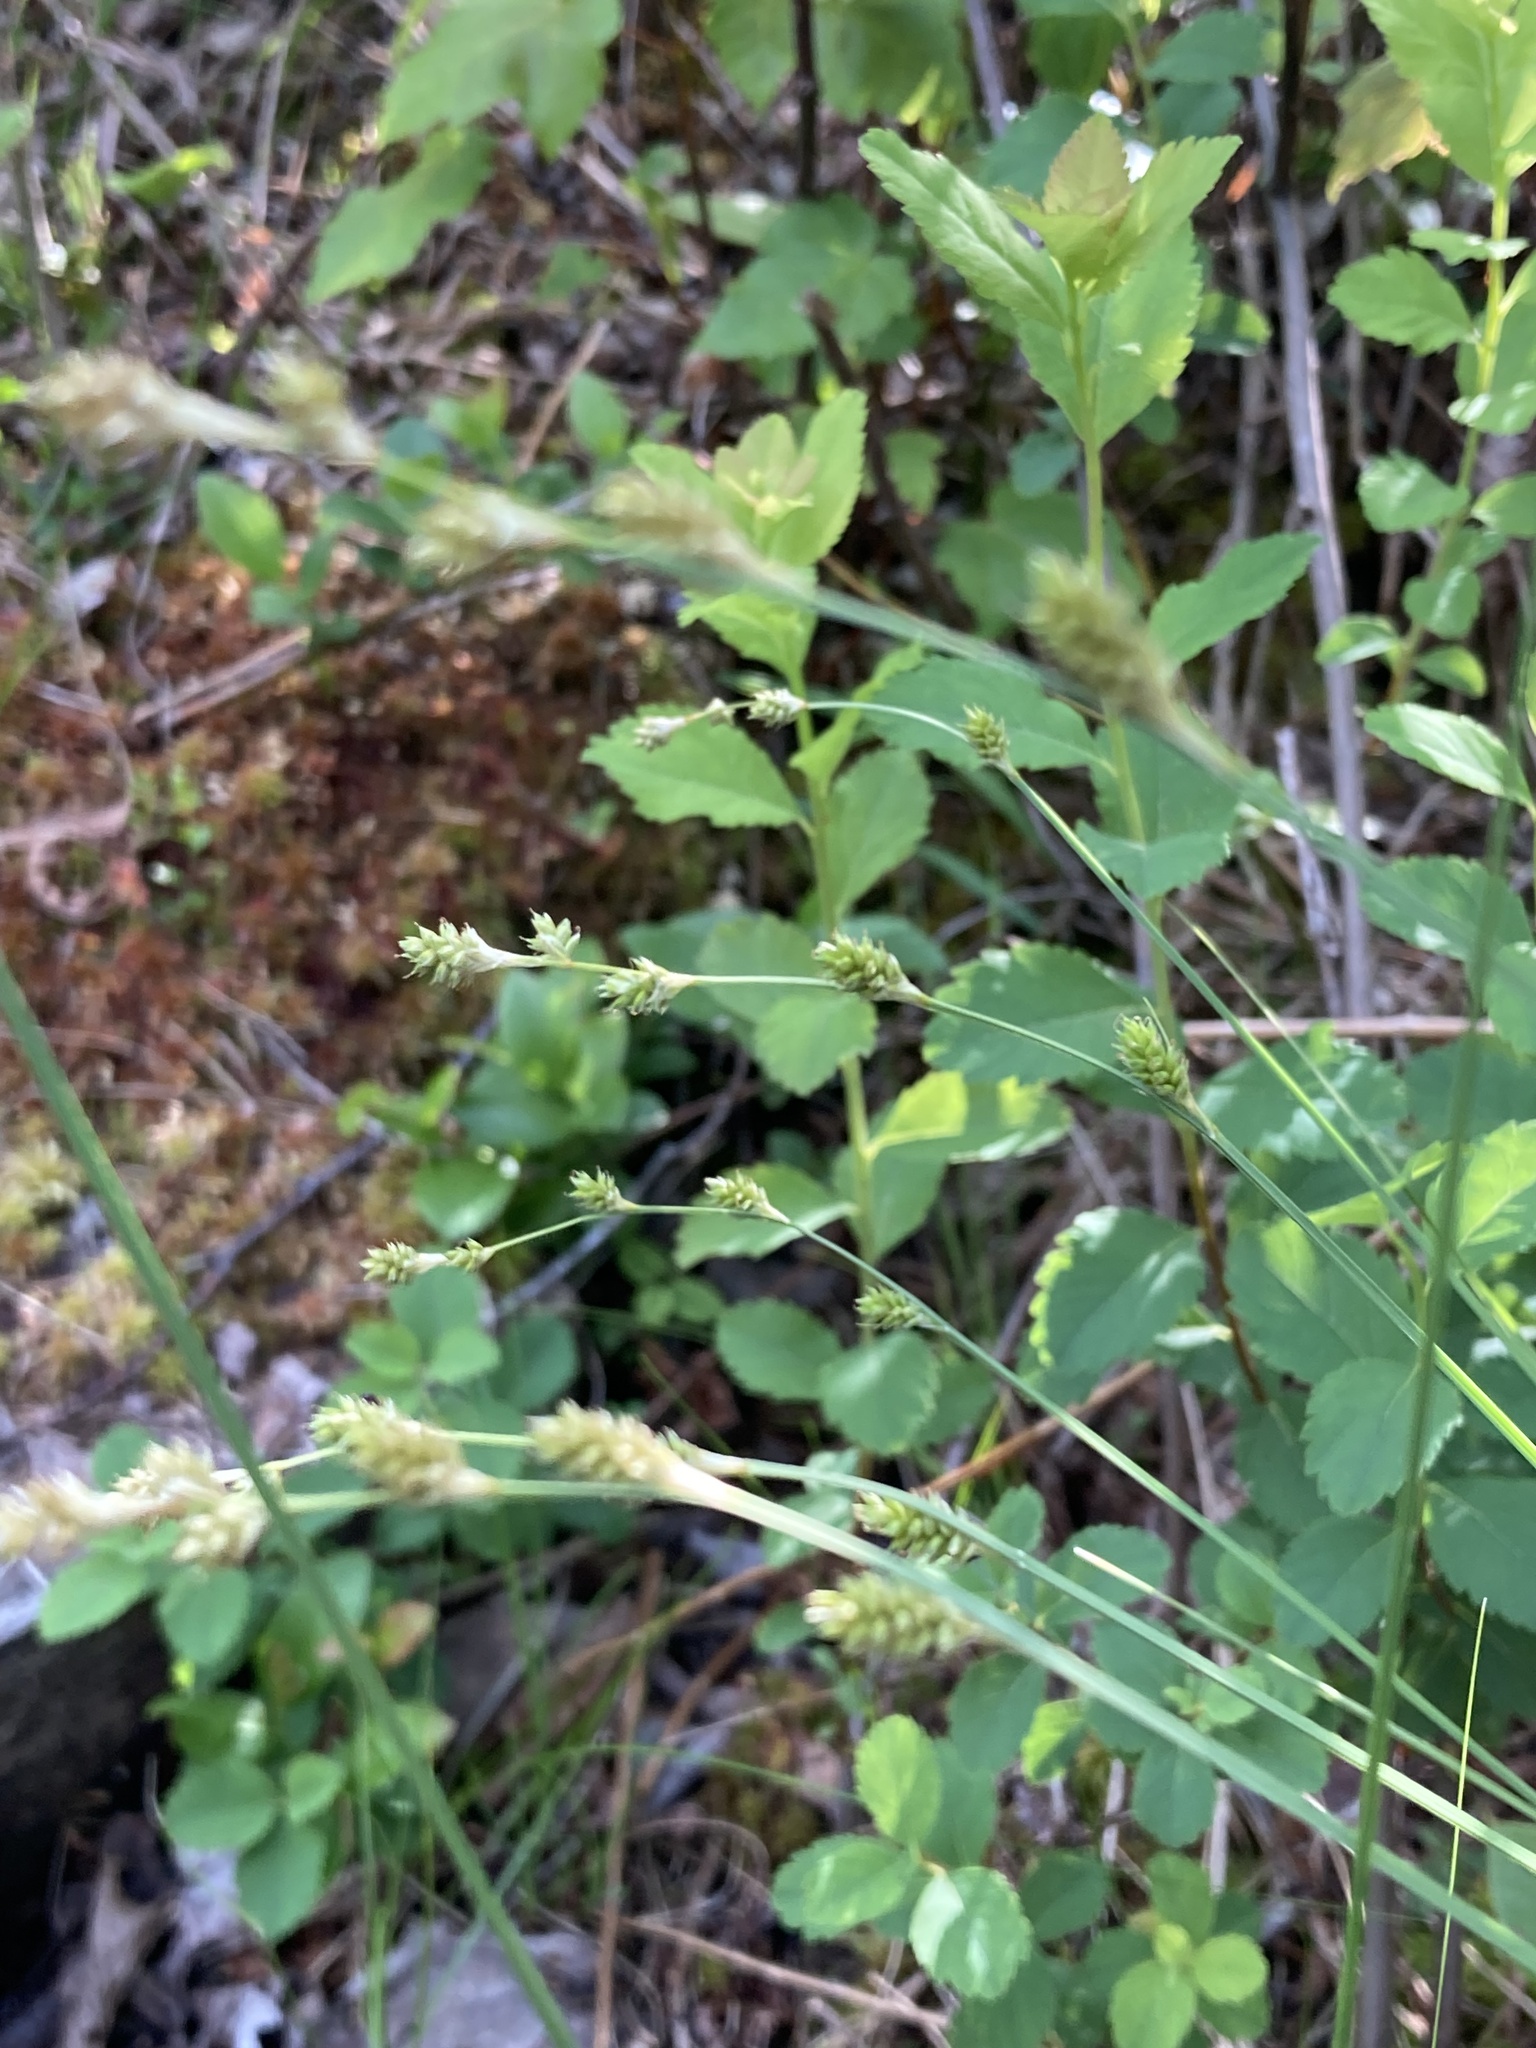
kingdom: Plantae
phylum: Tracheophyta
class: Liliopsida
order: Poales
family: Cyperaceae
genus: Carex
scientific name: Carex canescens
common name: White sedge
